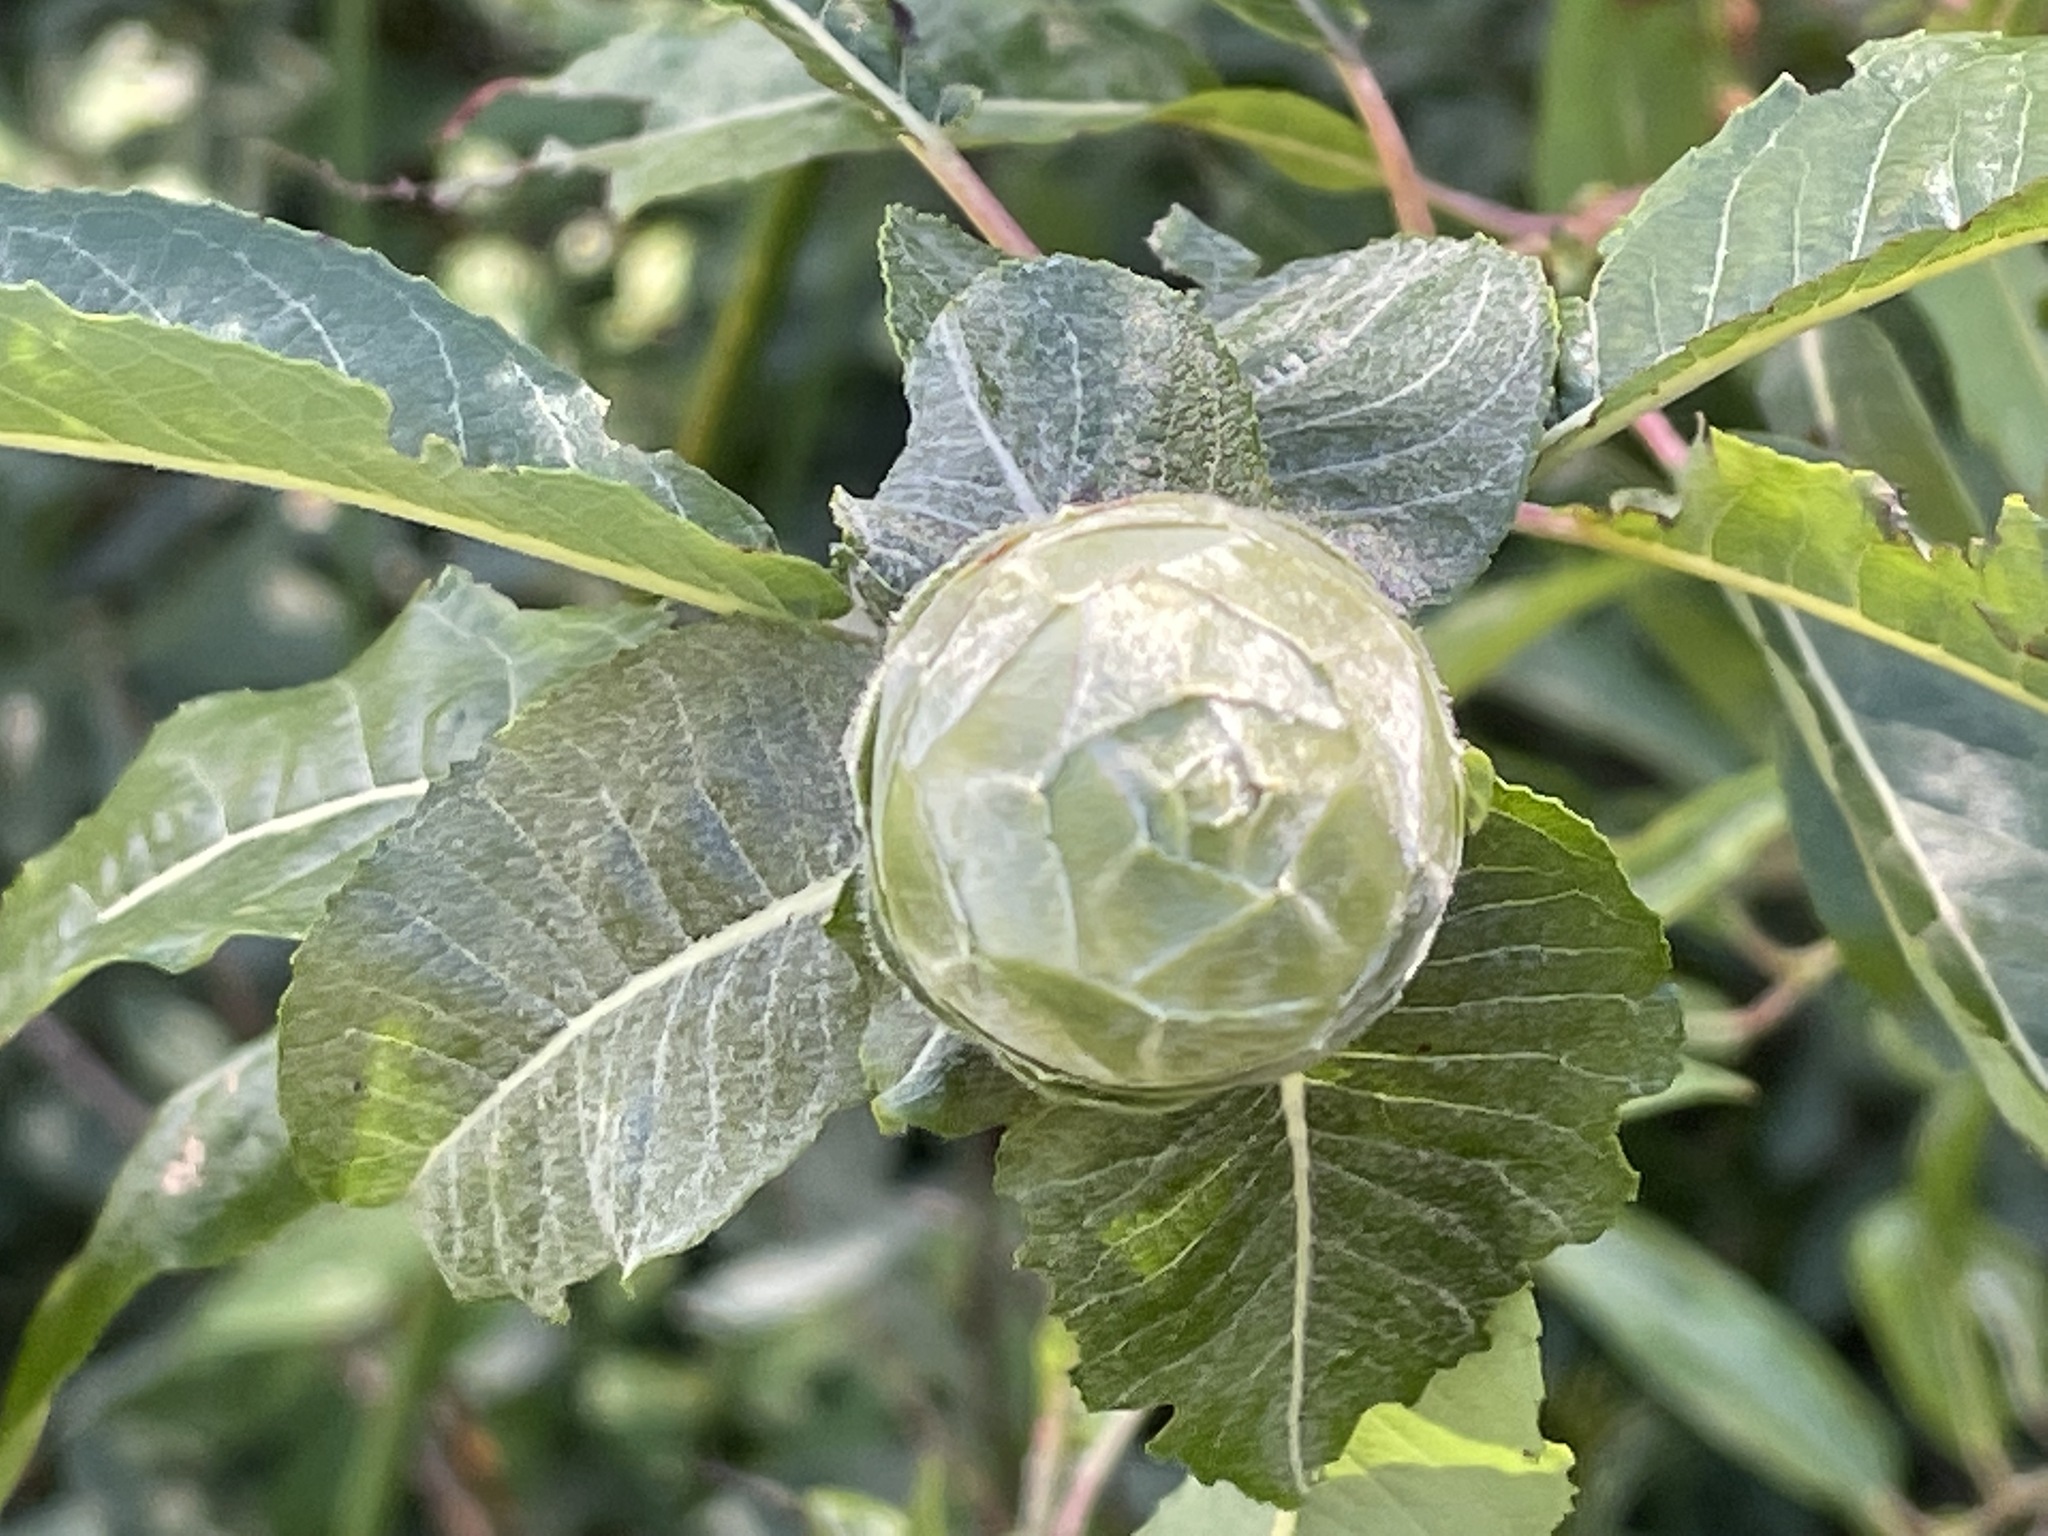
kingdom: Animalia
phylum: Arthropoda
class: Insecta
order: Diptera
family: Cecidomyiidae
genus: Rabdophaga
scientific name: Rabdophaga strobiloides
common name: Willow pinecone gall midge
